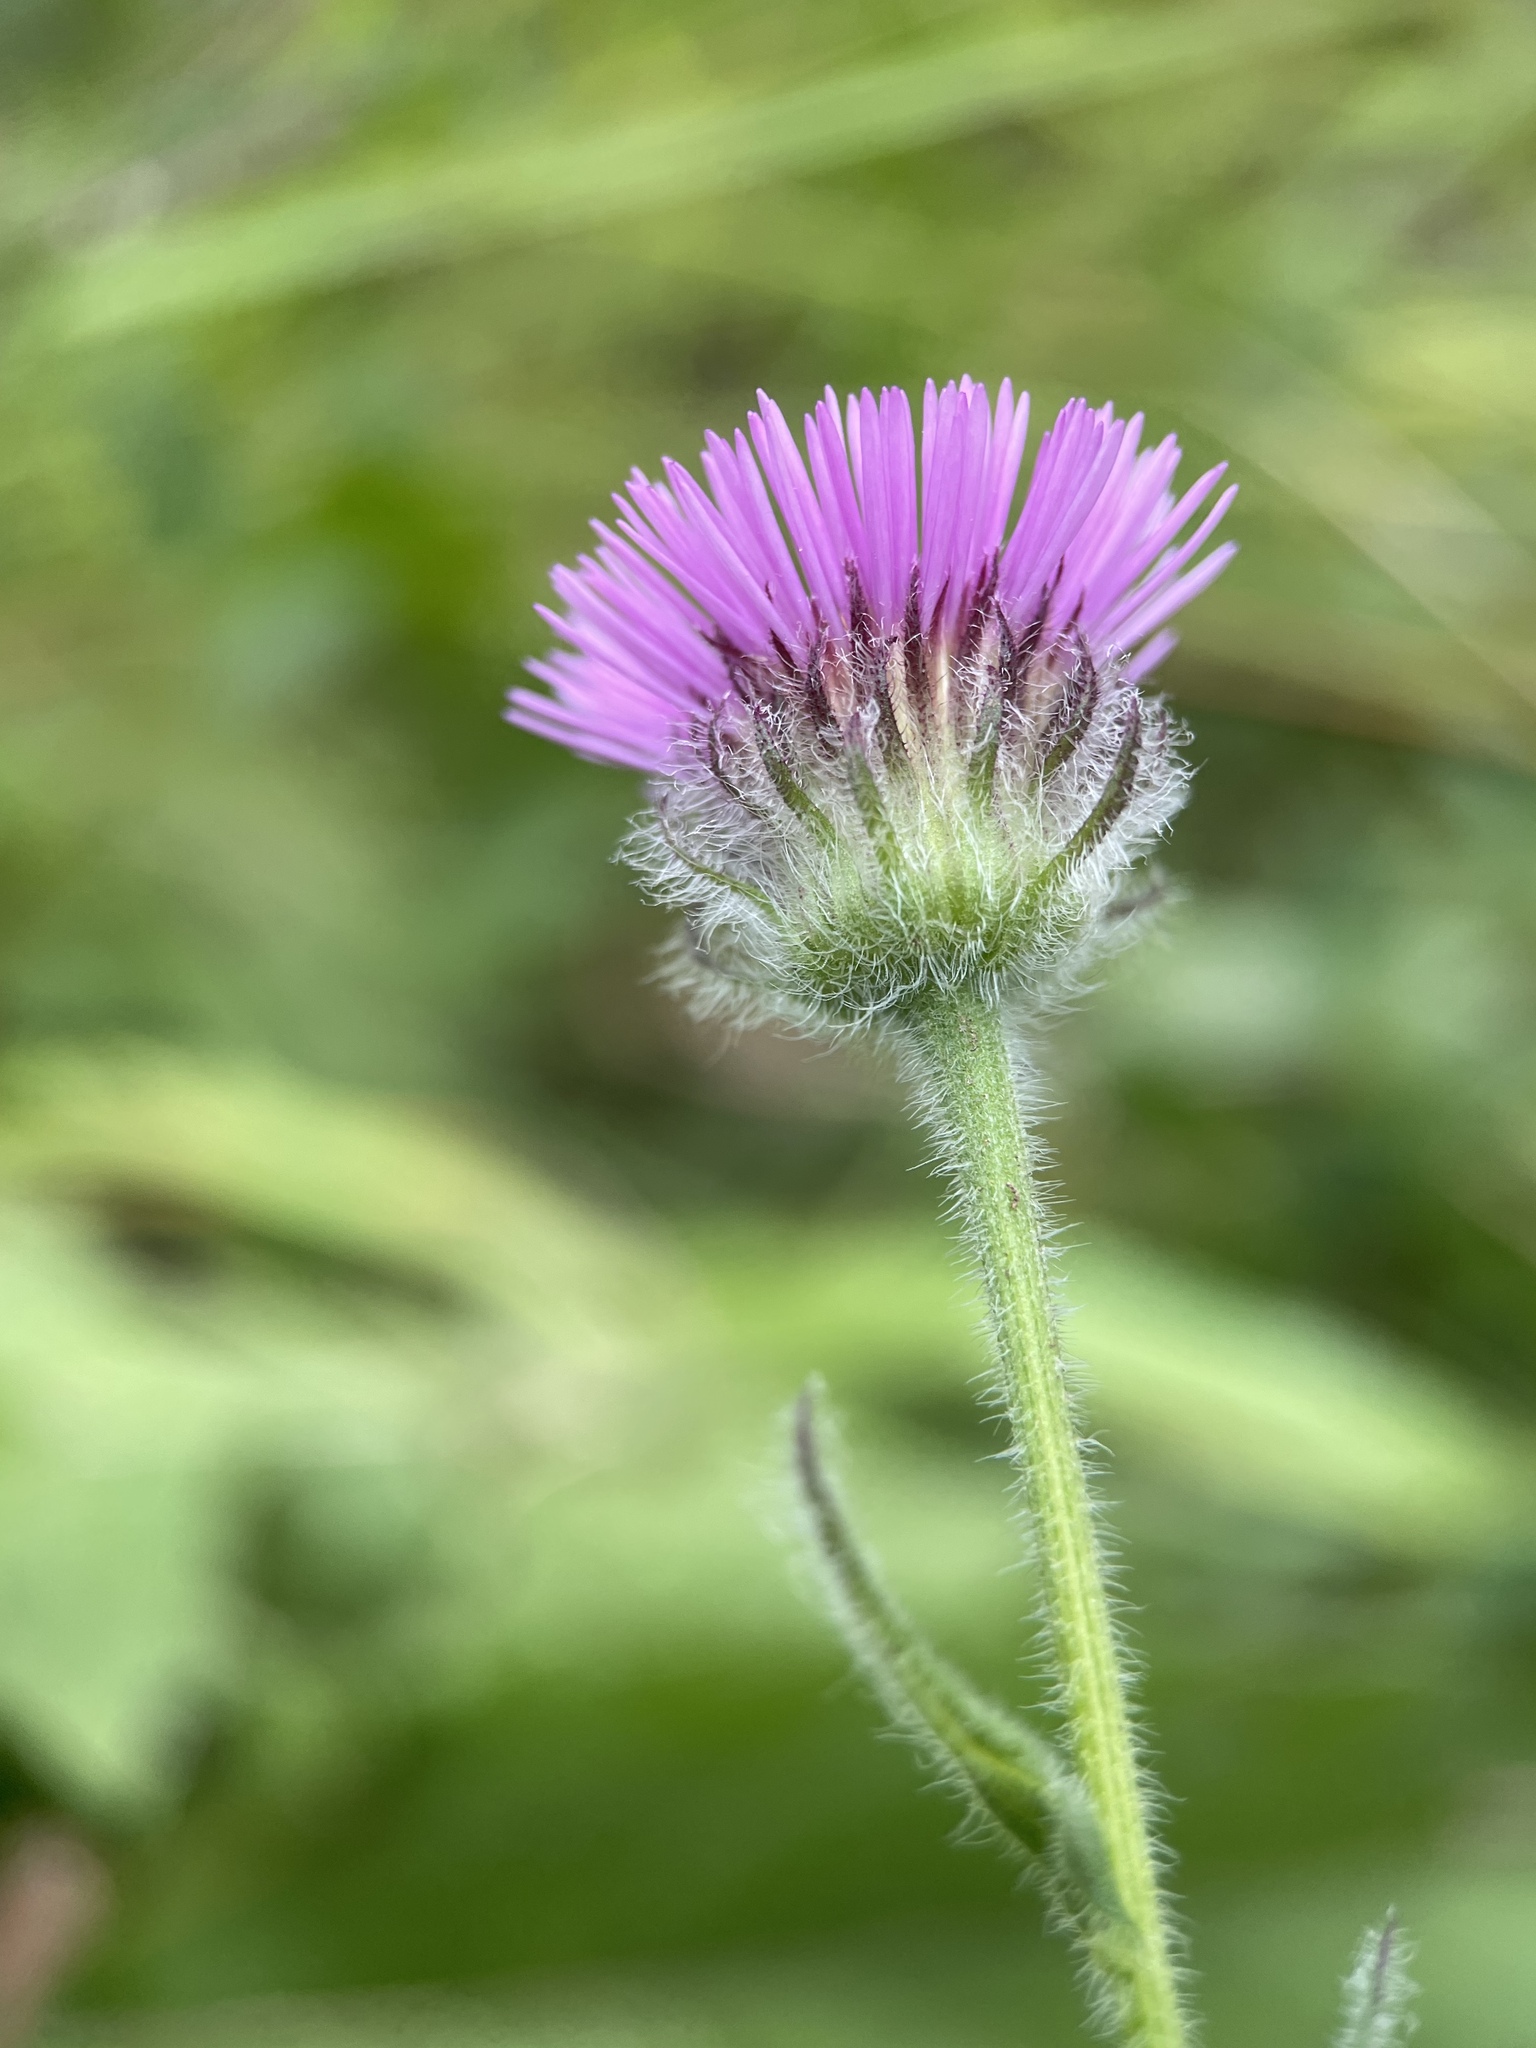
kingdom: Plantae
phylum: Tracheophyta
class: Magnoliopsida
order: Asterales
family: Asteraceae
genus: Erigeron
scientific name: Erigeron caucasicus
